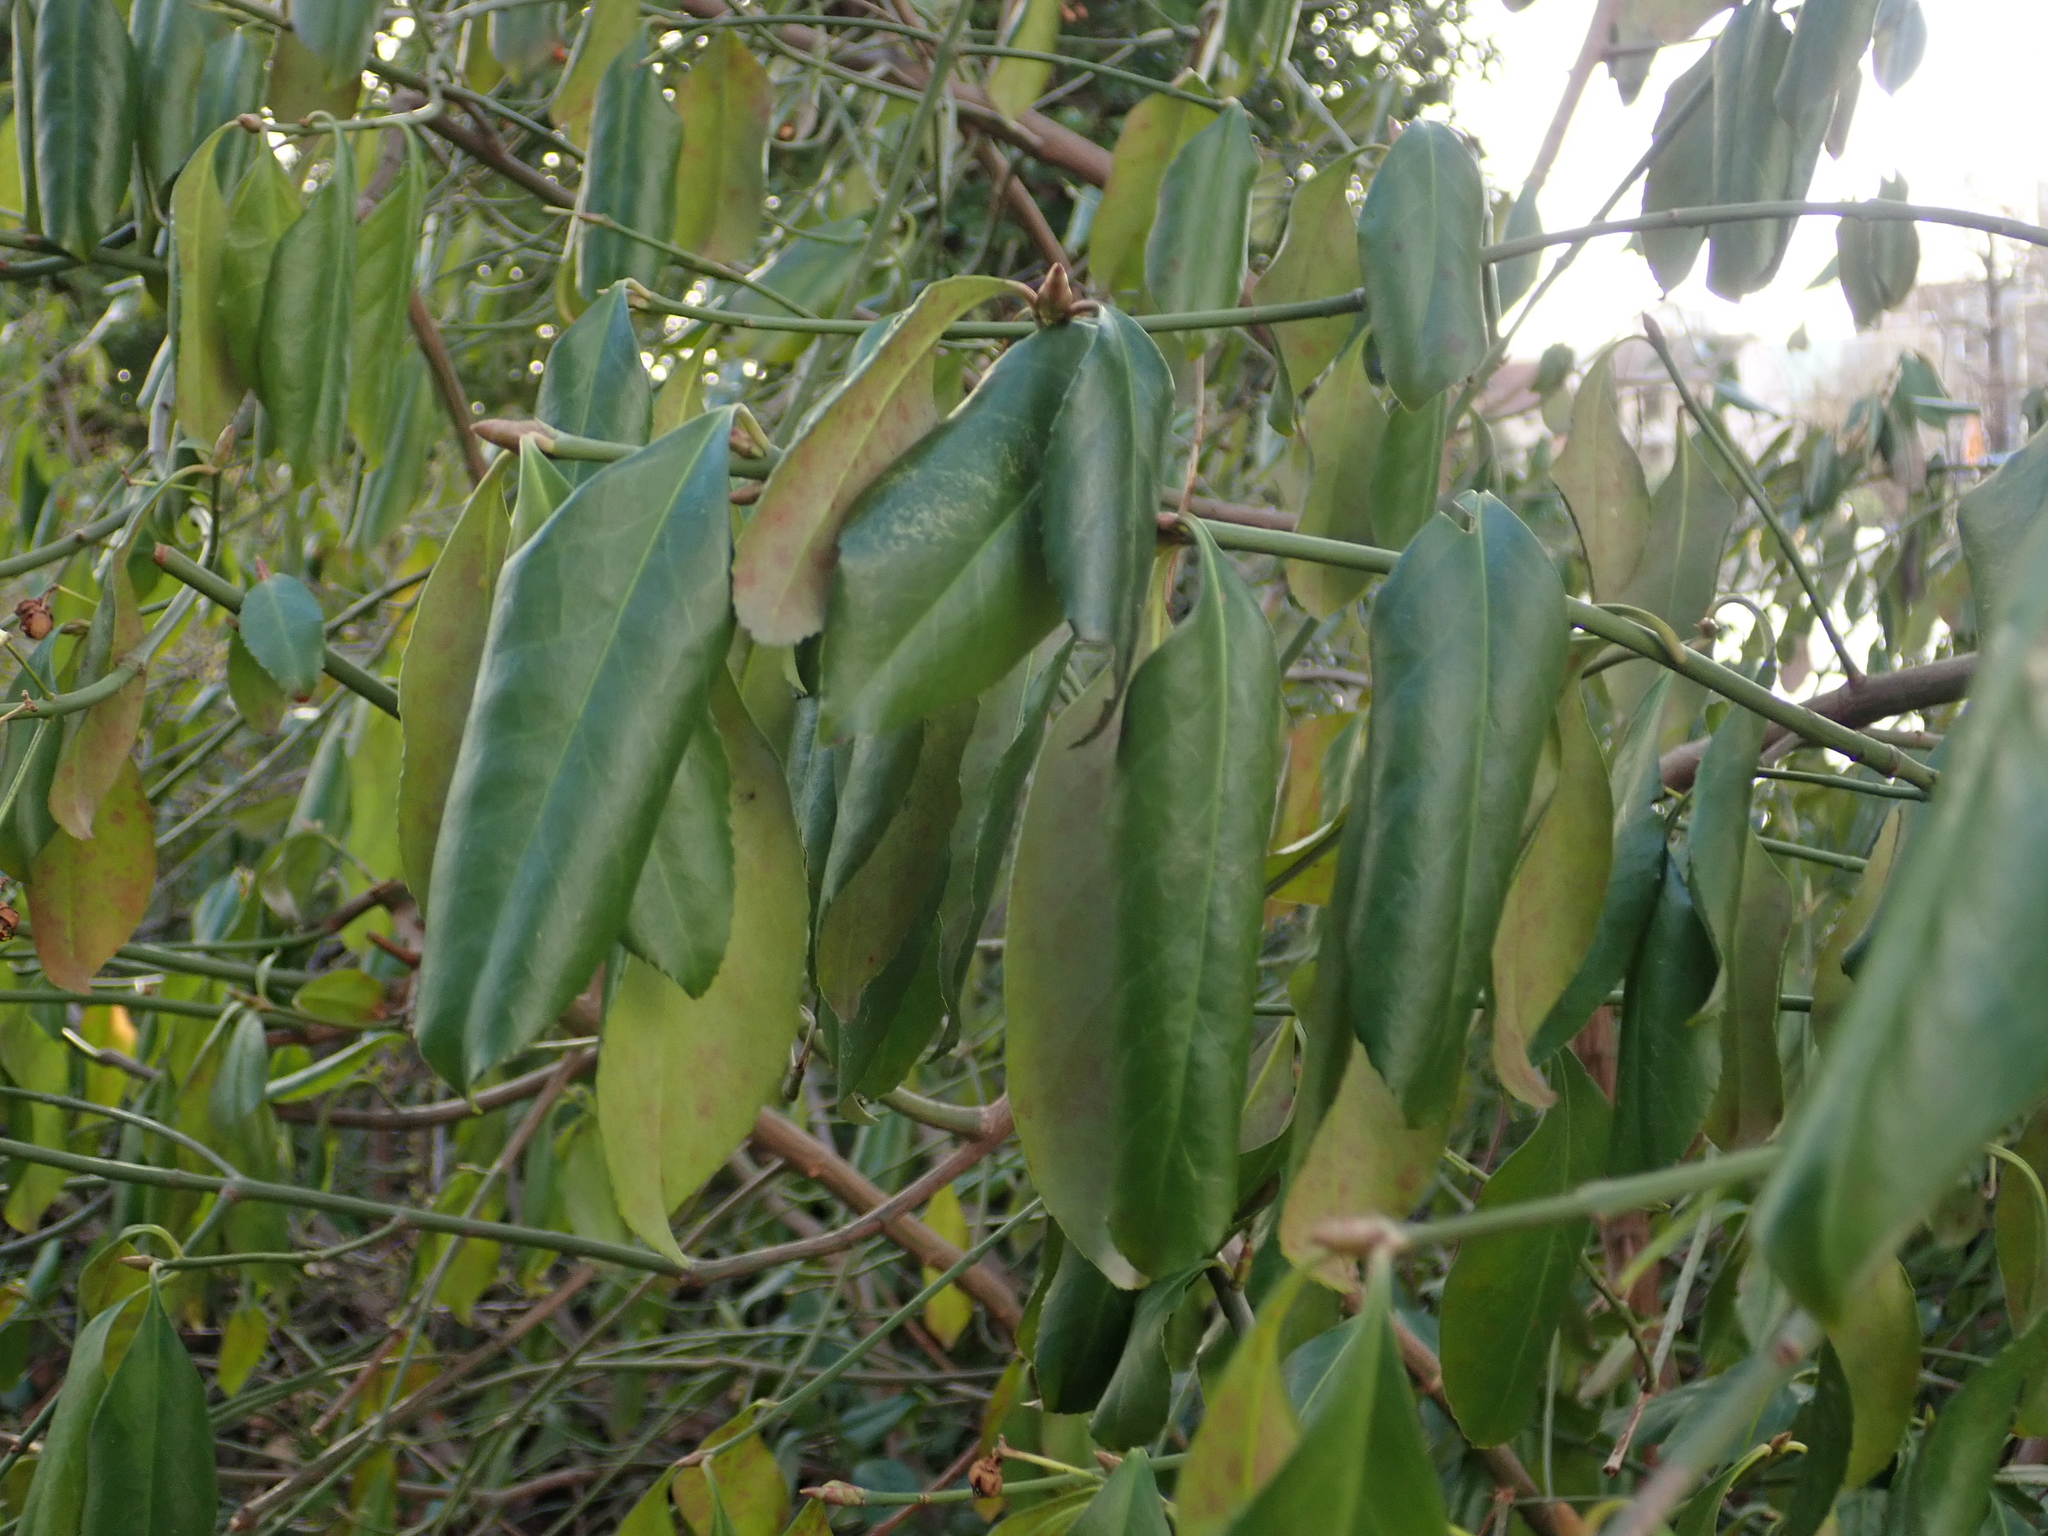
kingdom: Plantae
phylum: Tracheophyta
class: Magnoliopsida
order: Celastrales
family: Celastraceae
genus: Euonymus
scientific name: Euonymus europaeus
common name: Spindle
